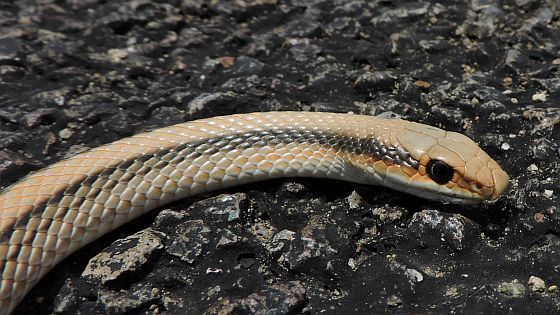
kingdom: Animalia
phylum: Chordata
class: Squamata
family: Colubridae
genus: Salvadora
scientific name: Salvadora deserticola
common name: Big bend patchnose snake
